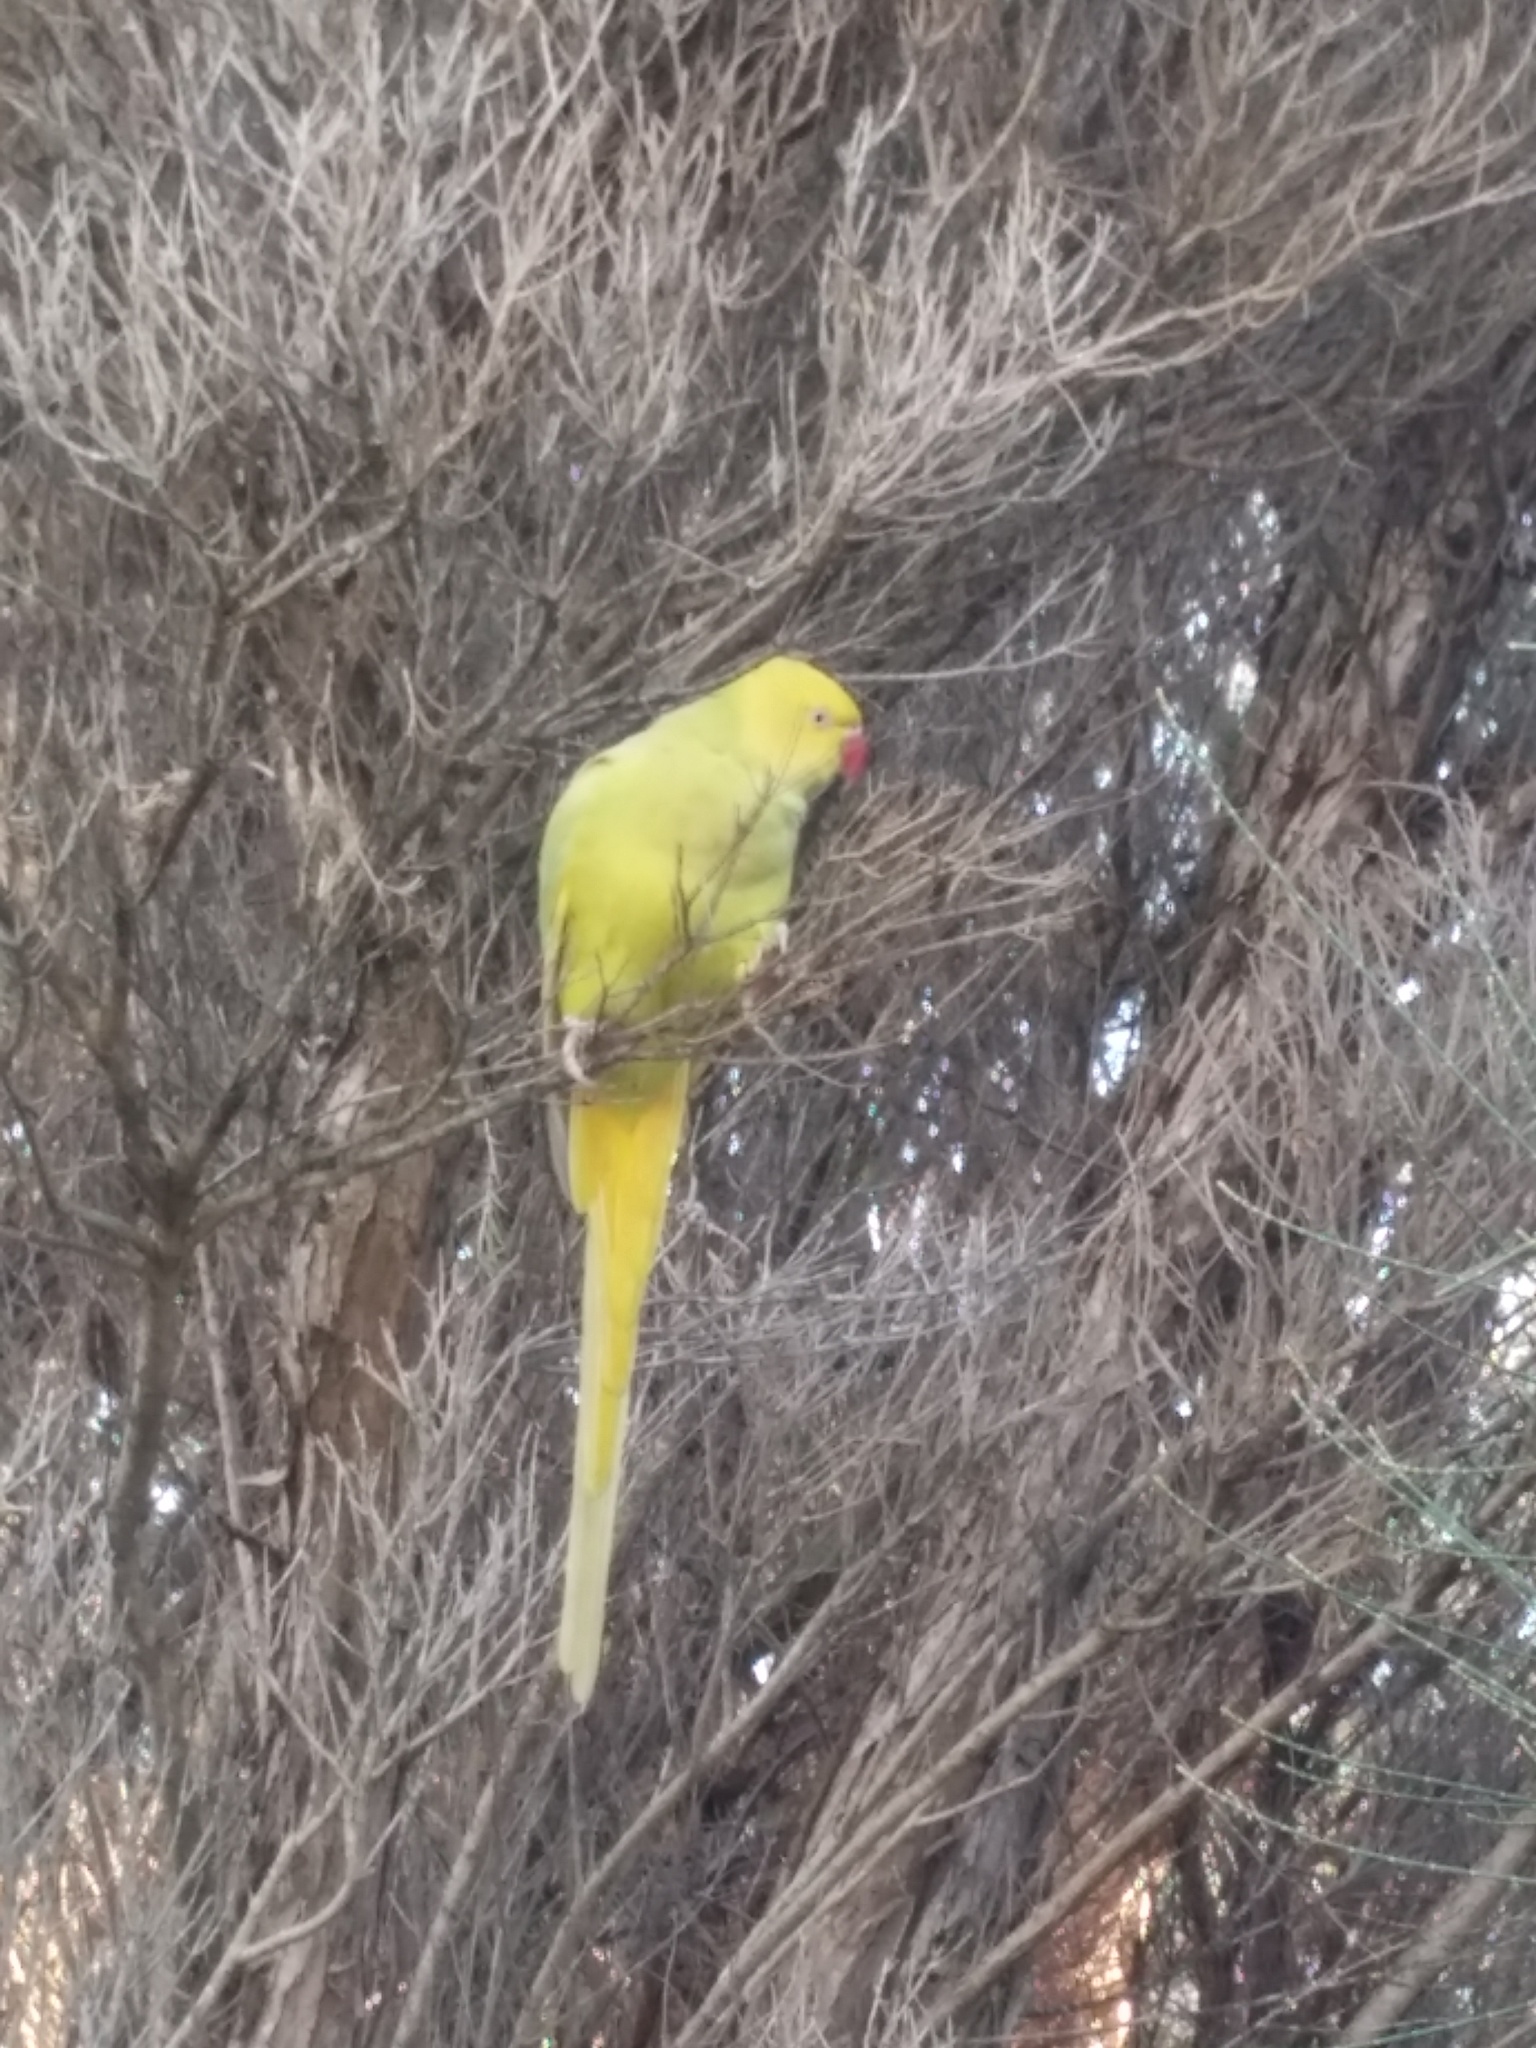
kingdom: Animalia
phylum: Chordata
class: Aves
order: Psittaciformes
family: Psittacidae
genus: Psittacula
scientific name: Psittacula krameri
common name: Rose-ringed parakeet
